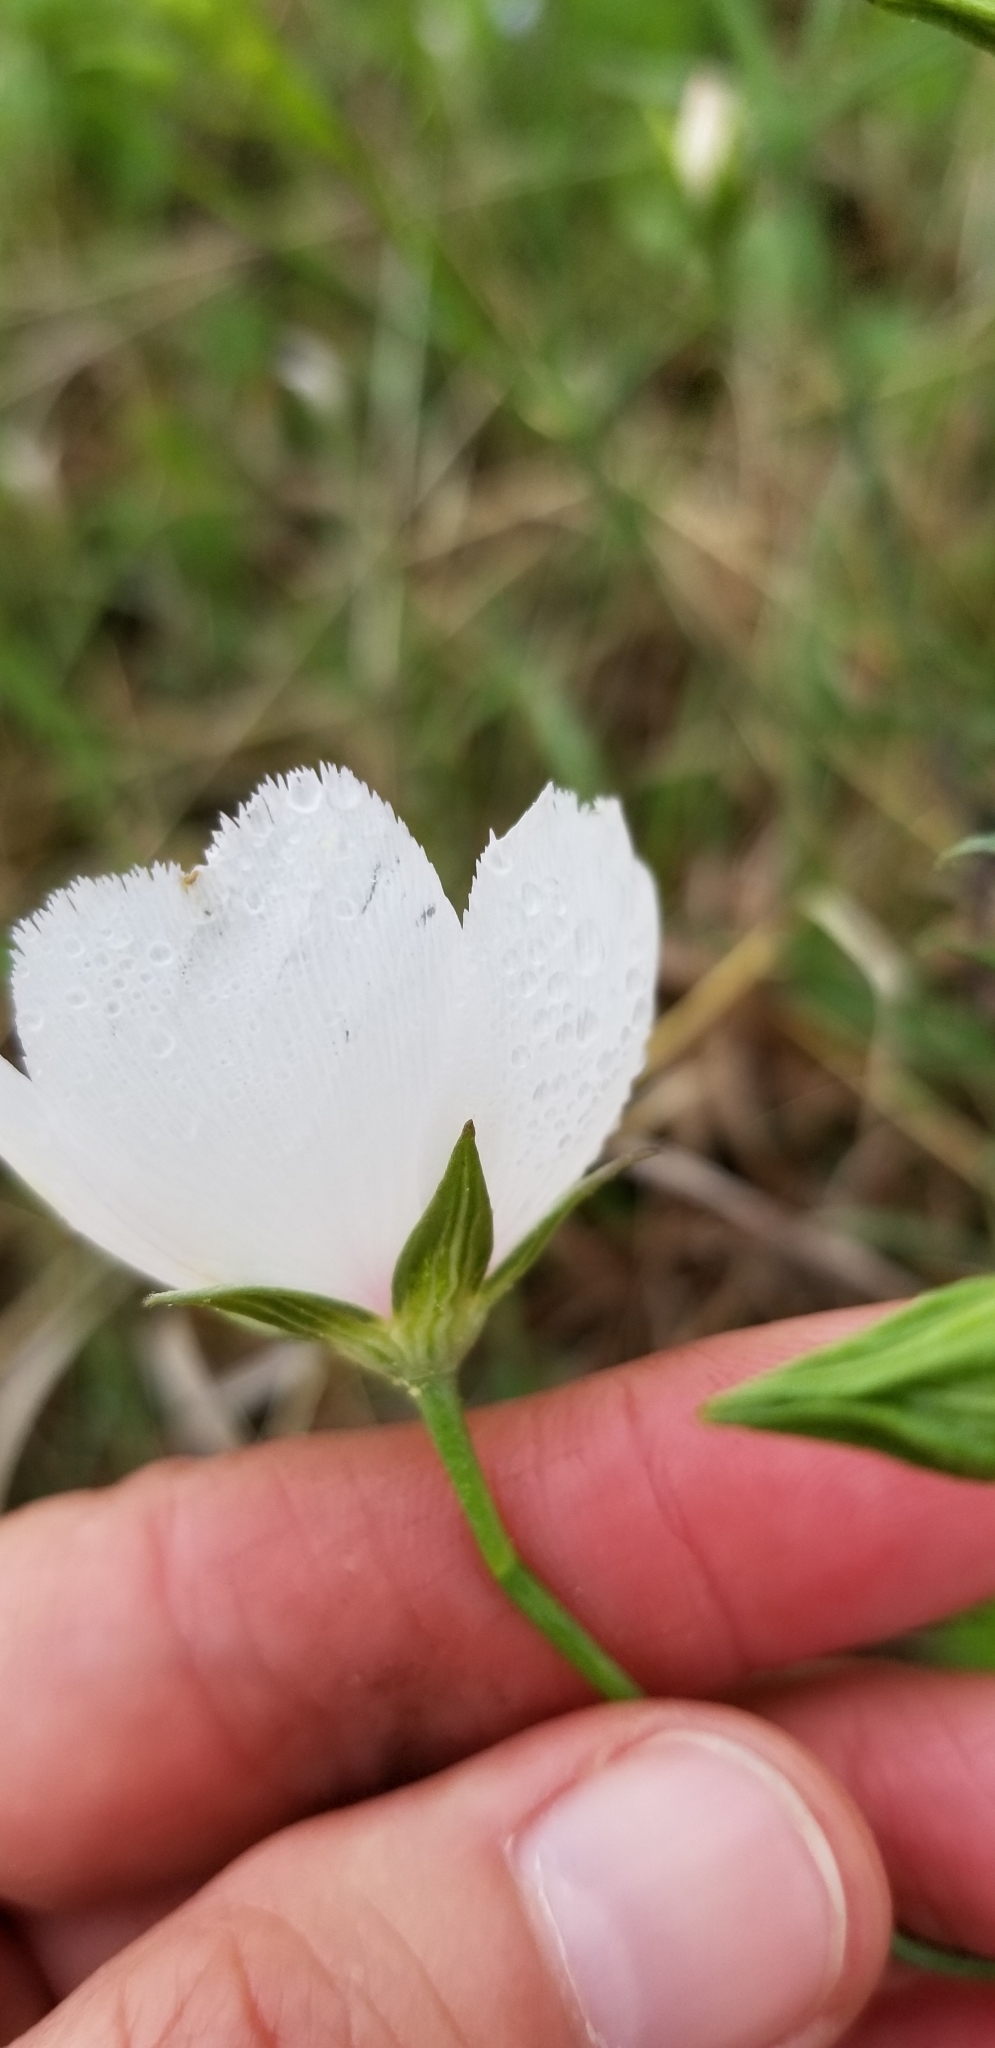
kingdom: Plantae
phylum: Tracheophyta
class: Magnoliopsida
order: Malvales
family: Malvaceae
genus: Callirhoe
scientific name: Callirhoe pedata
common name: Finger poppy-mallow
